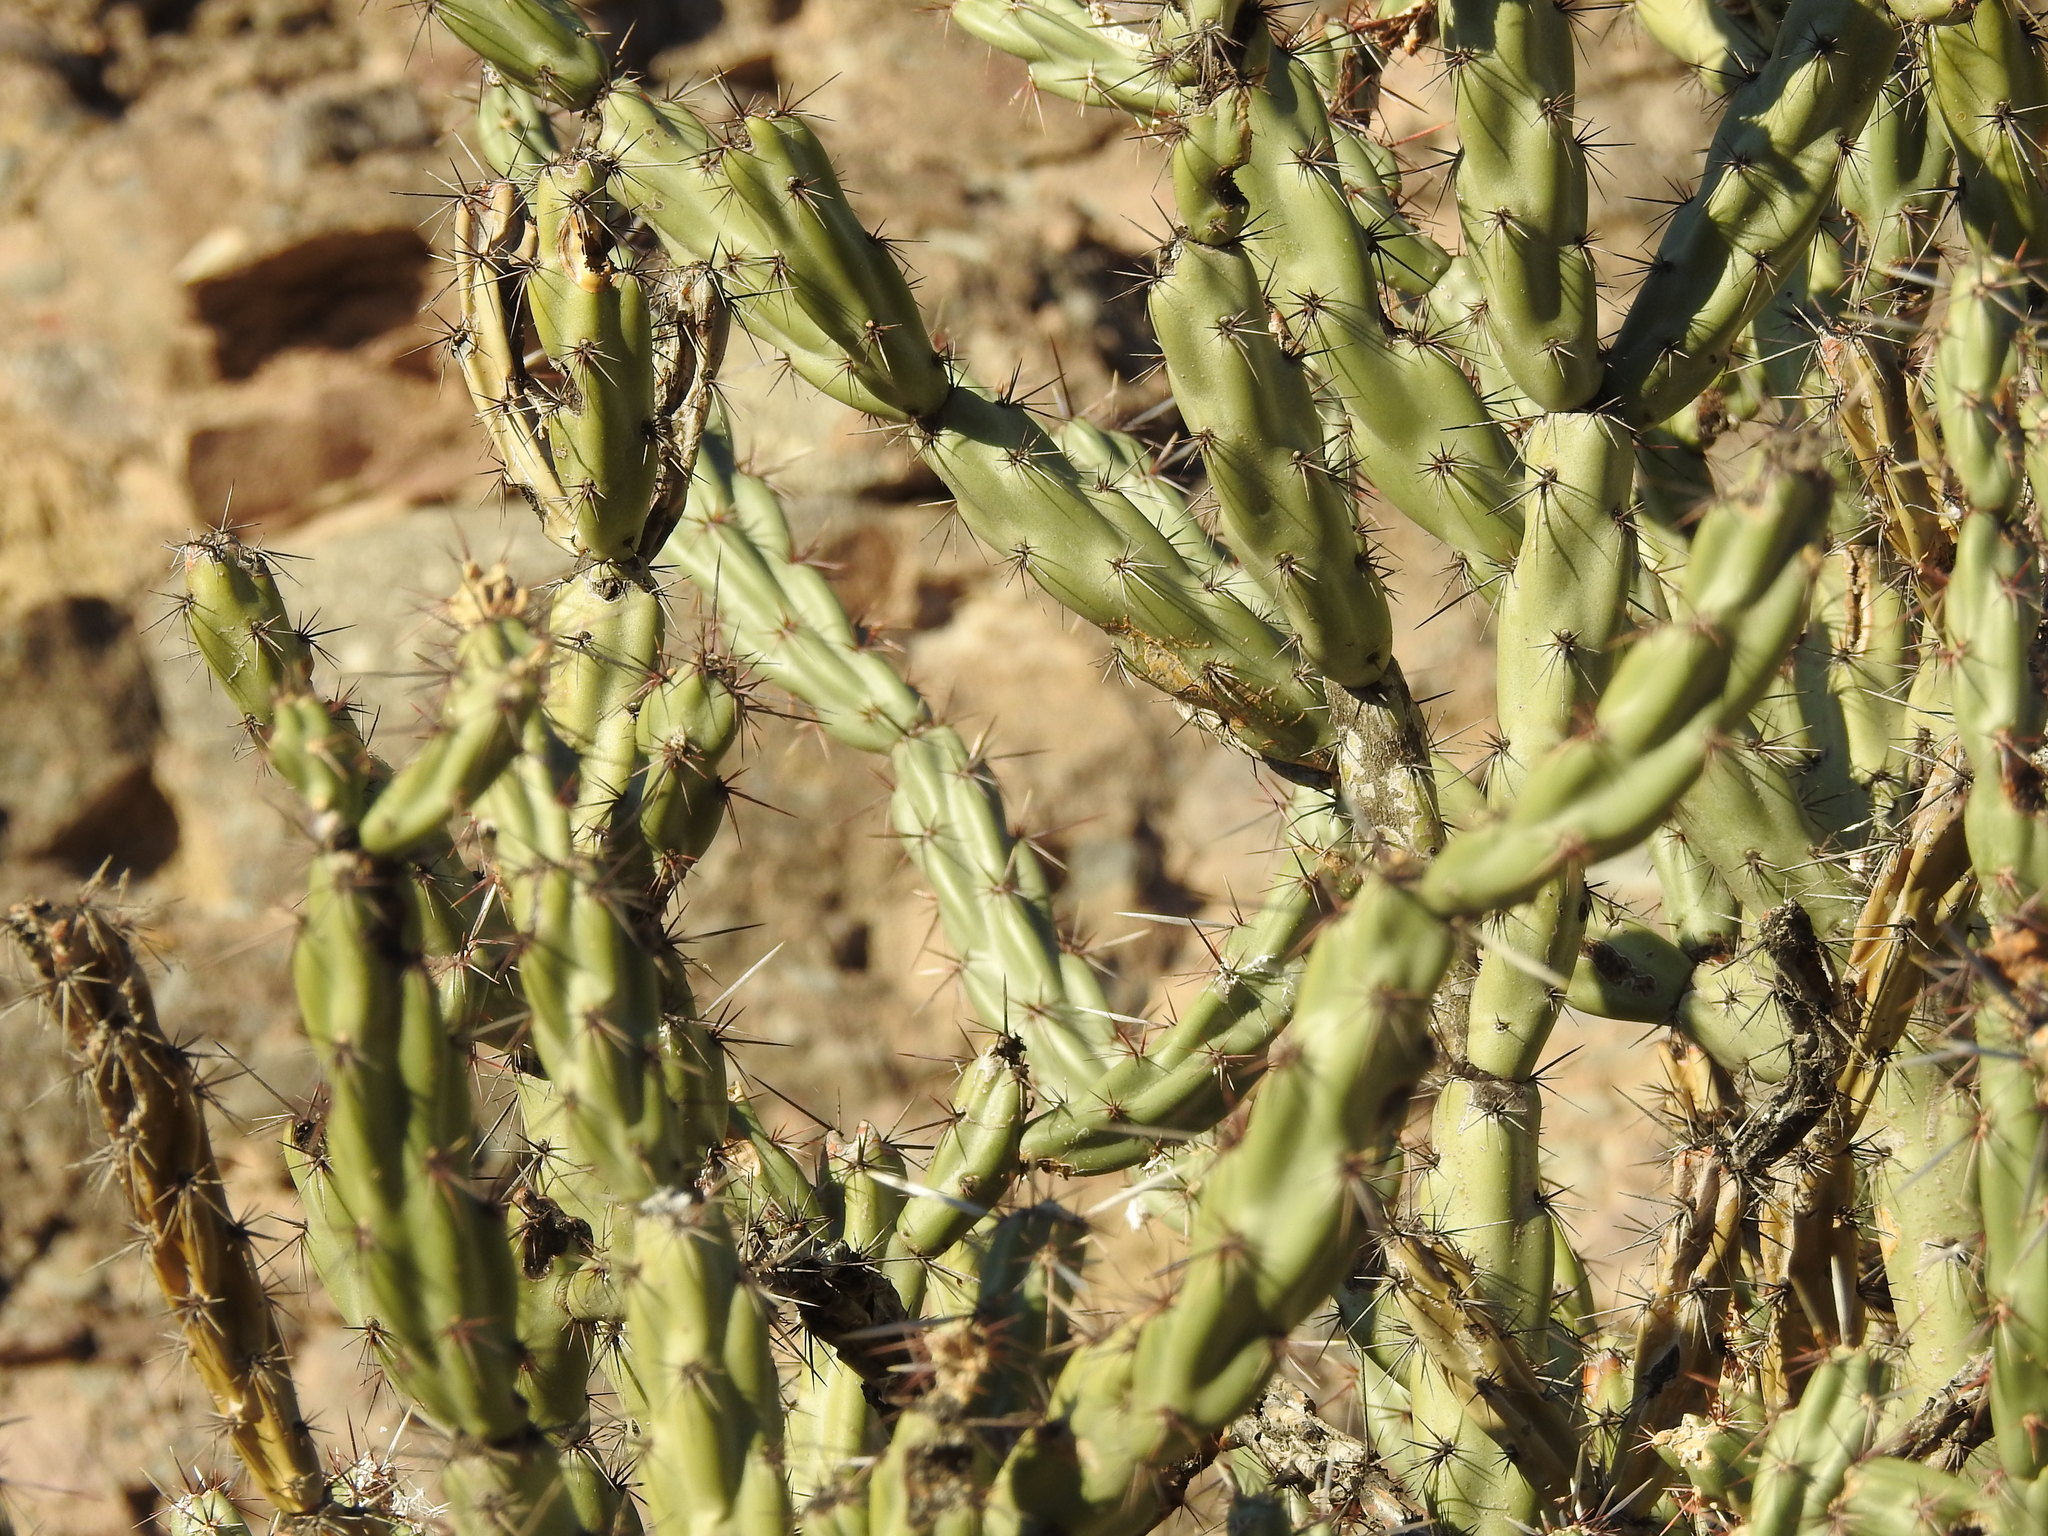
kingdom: Plantae
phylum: Tracheophyta
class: Magnoliopsida
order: Caryophyllales
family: Cactaceae
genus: Cylindropuntia
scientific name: Cylindropuntia acanthocarpa
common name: Buckhorn cholla
